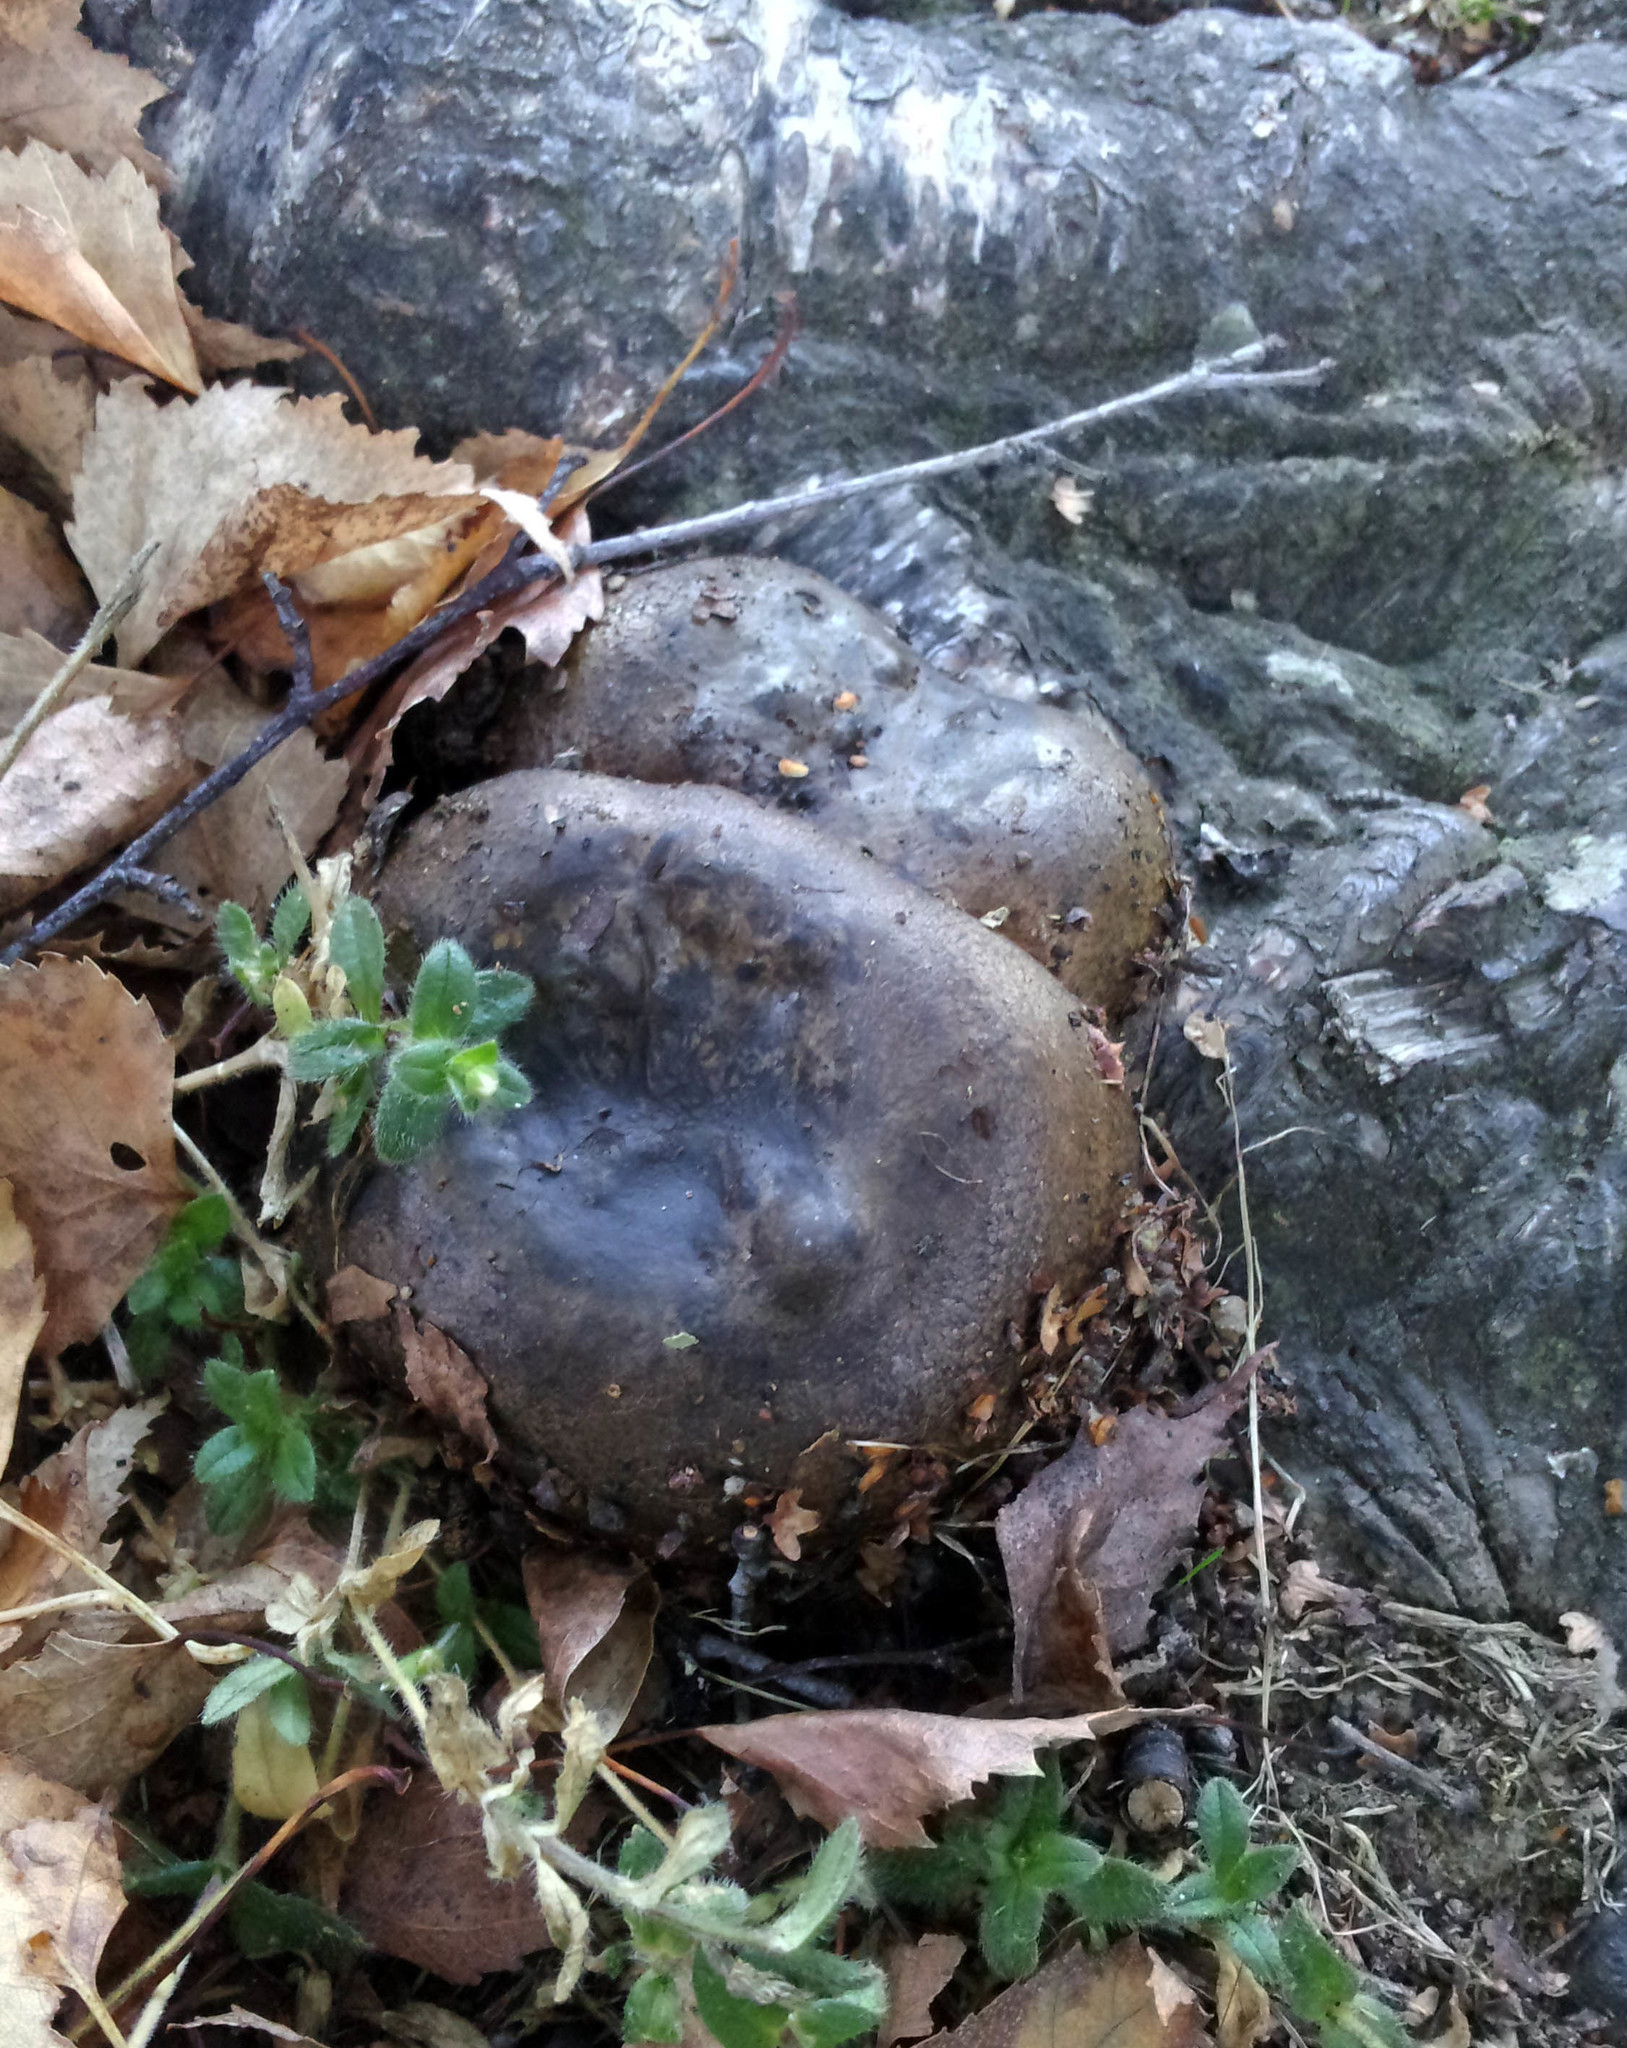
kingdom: Fungi
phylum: Basidiomycota
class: Agaricomycetes
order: Russulales
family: Russulaceae
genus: Lactarius
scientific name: Lactarius turpis
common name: Ugly milk-cap
